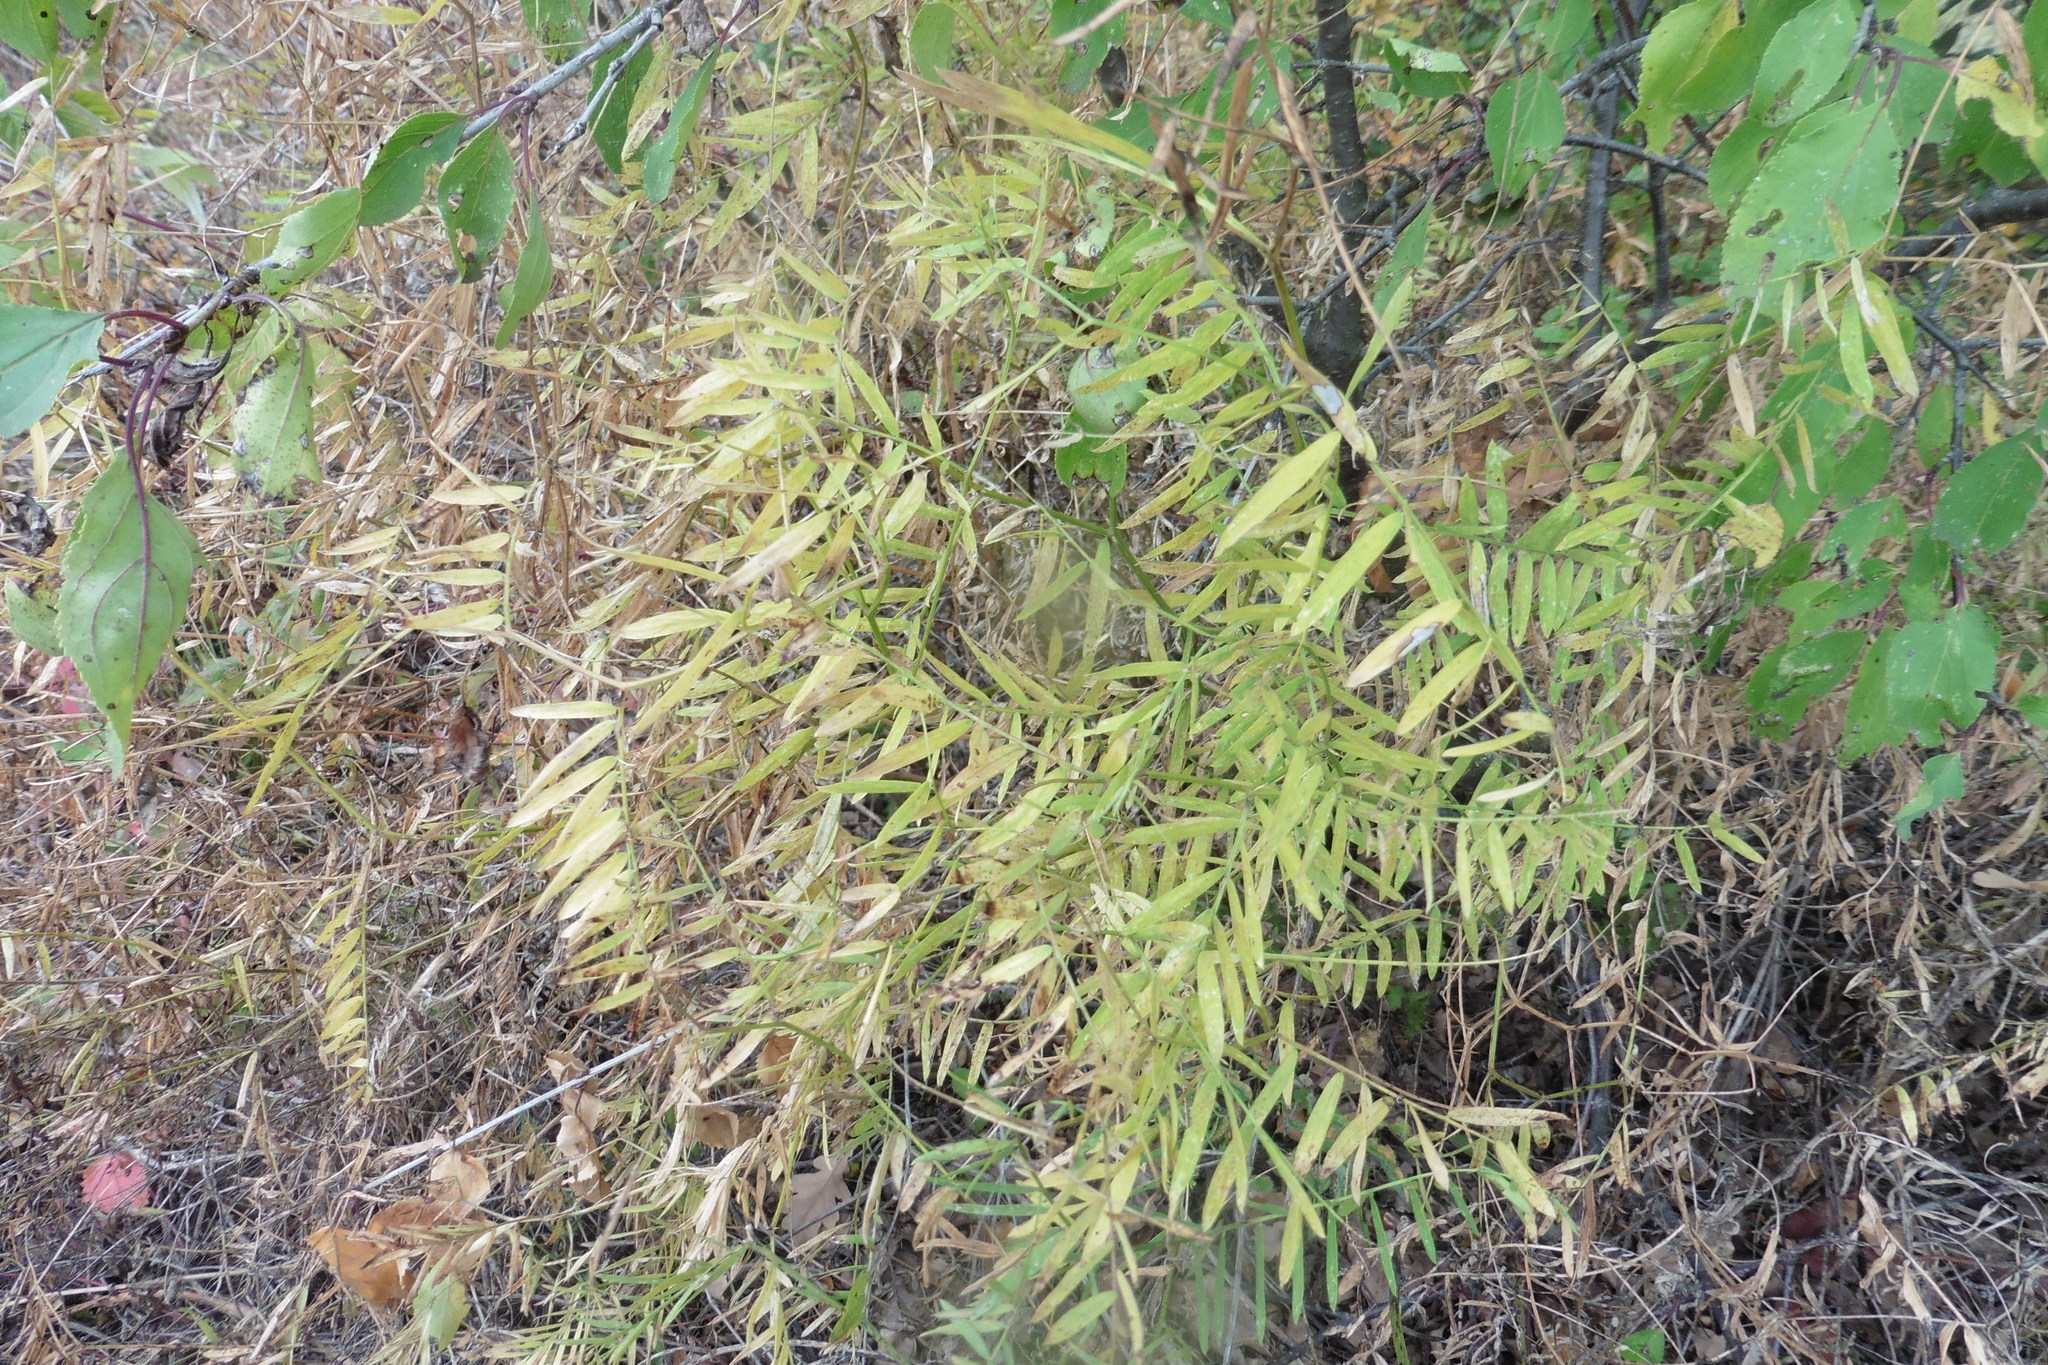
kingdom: Plantae
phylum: Tracheophyta
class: Magnoliopsida
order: Fabales
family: Fabaceae
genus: Vicia
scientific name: Vicia tenuifolia
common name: Fine-leaved vetch
